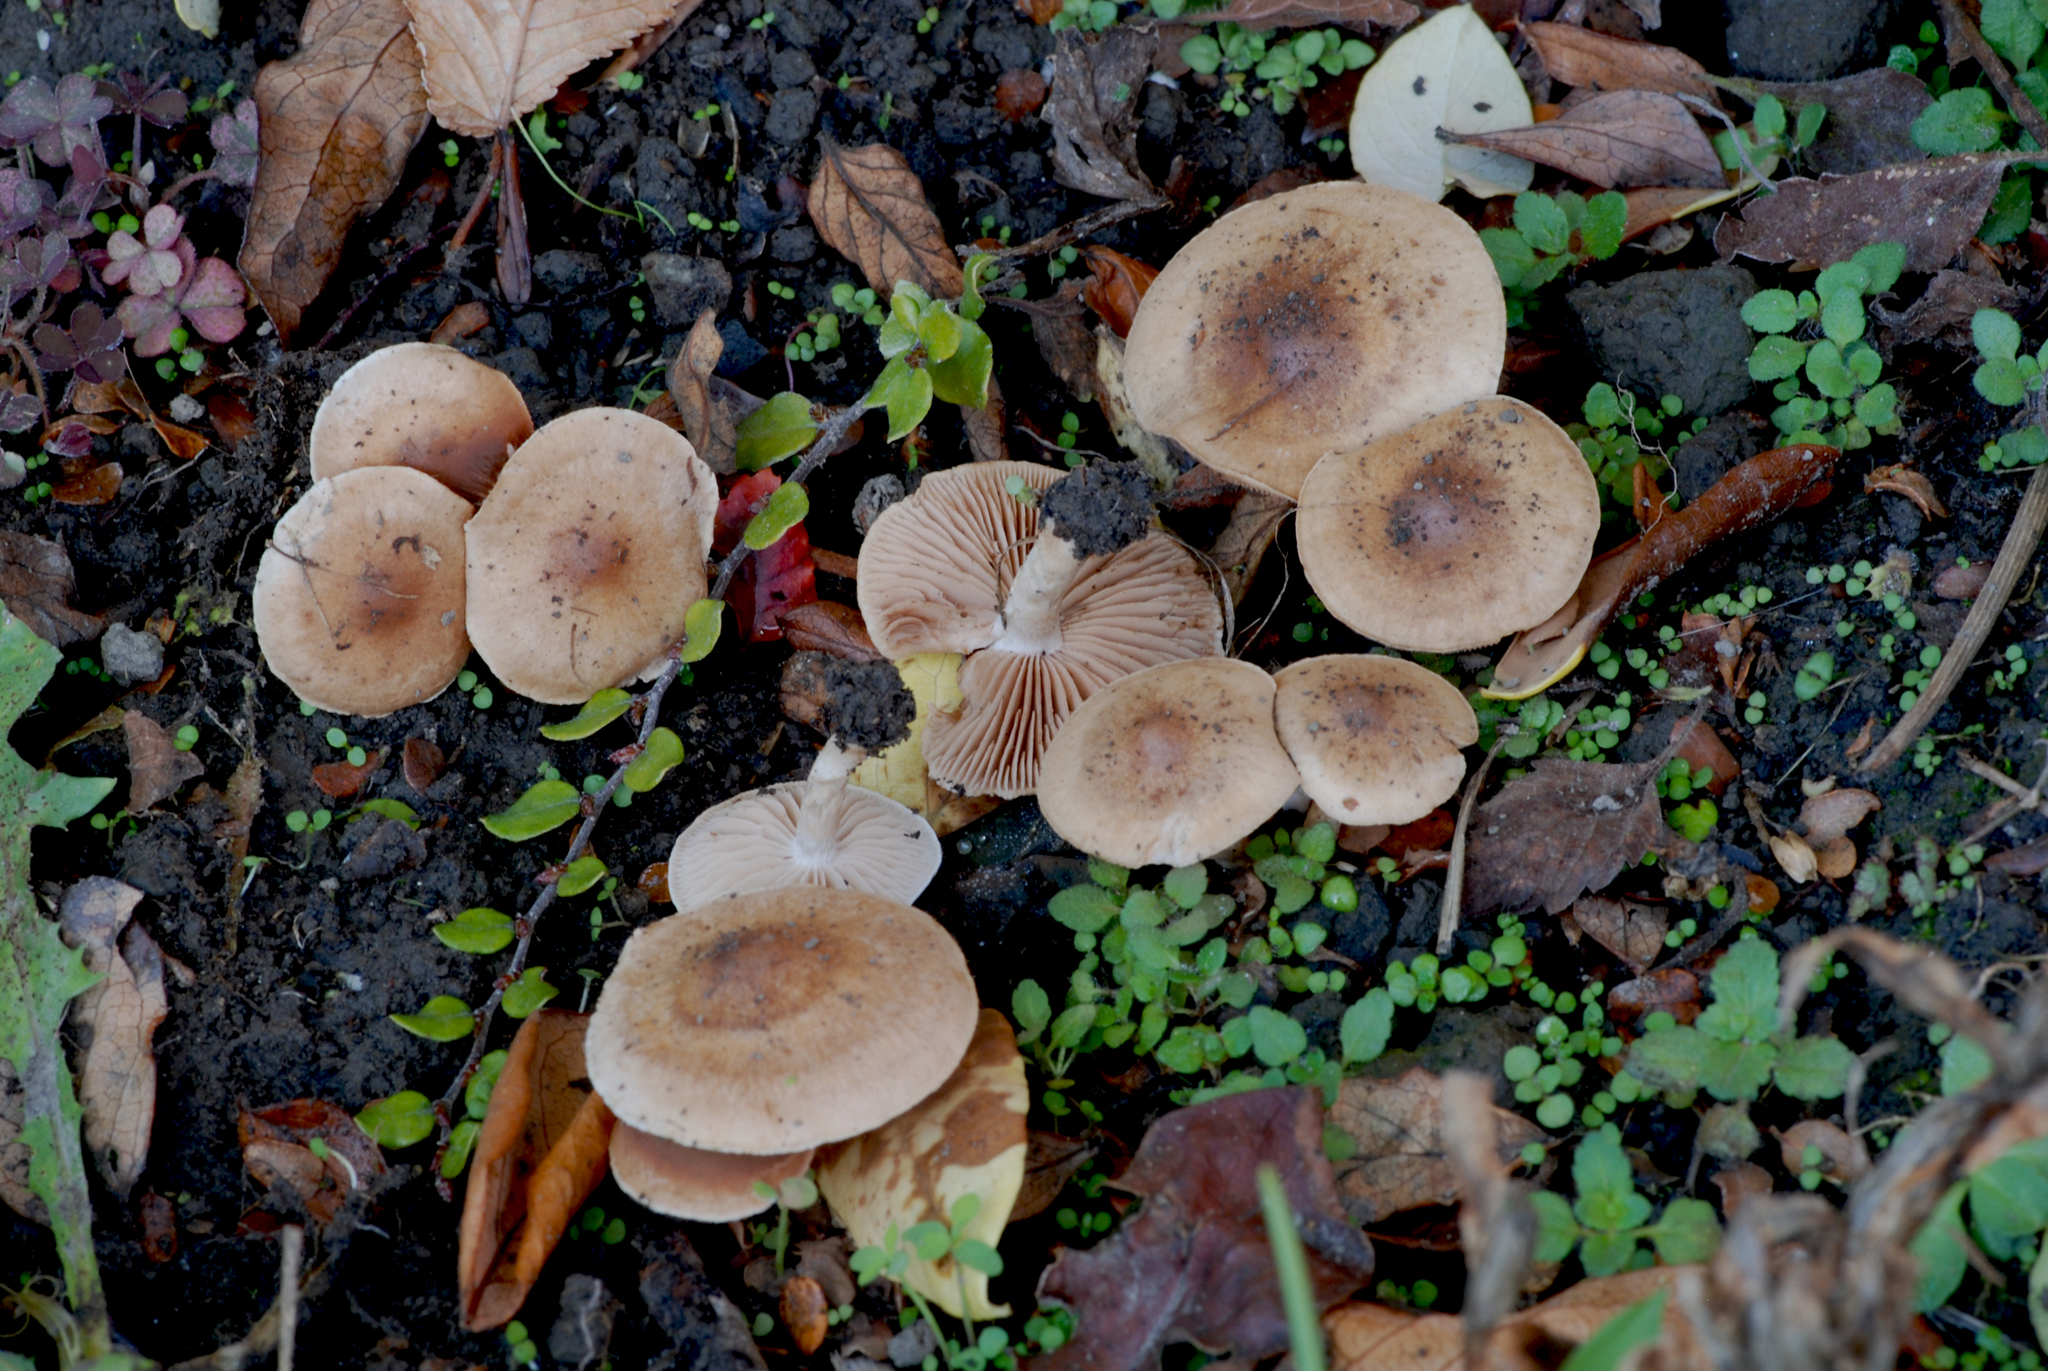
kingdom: Fungi
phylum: Basidiomycota
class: Agaricomycetes
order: Agaricales
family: Hymenogastraceae
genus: Hebeloma
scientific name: Hebeloma mesophaeum
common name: Veiled poisonpie
